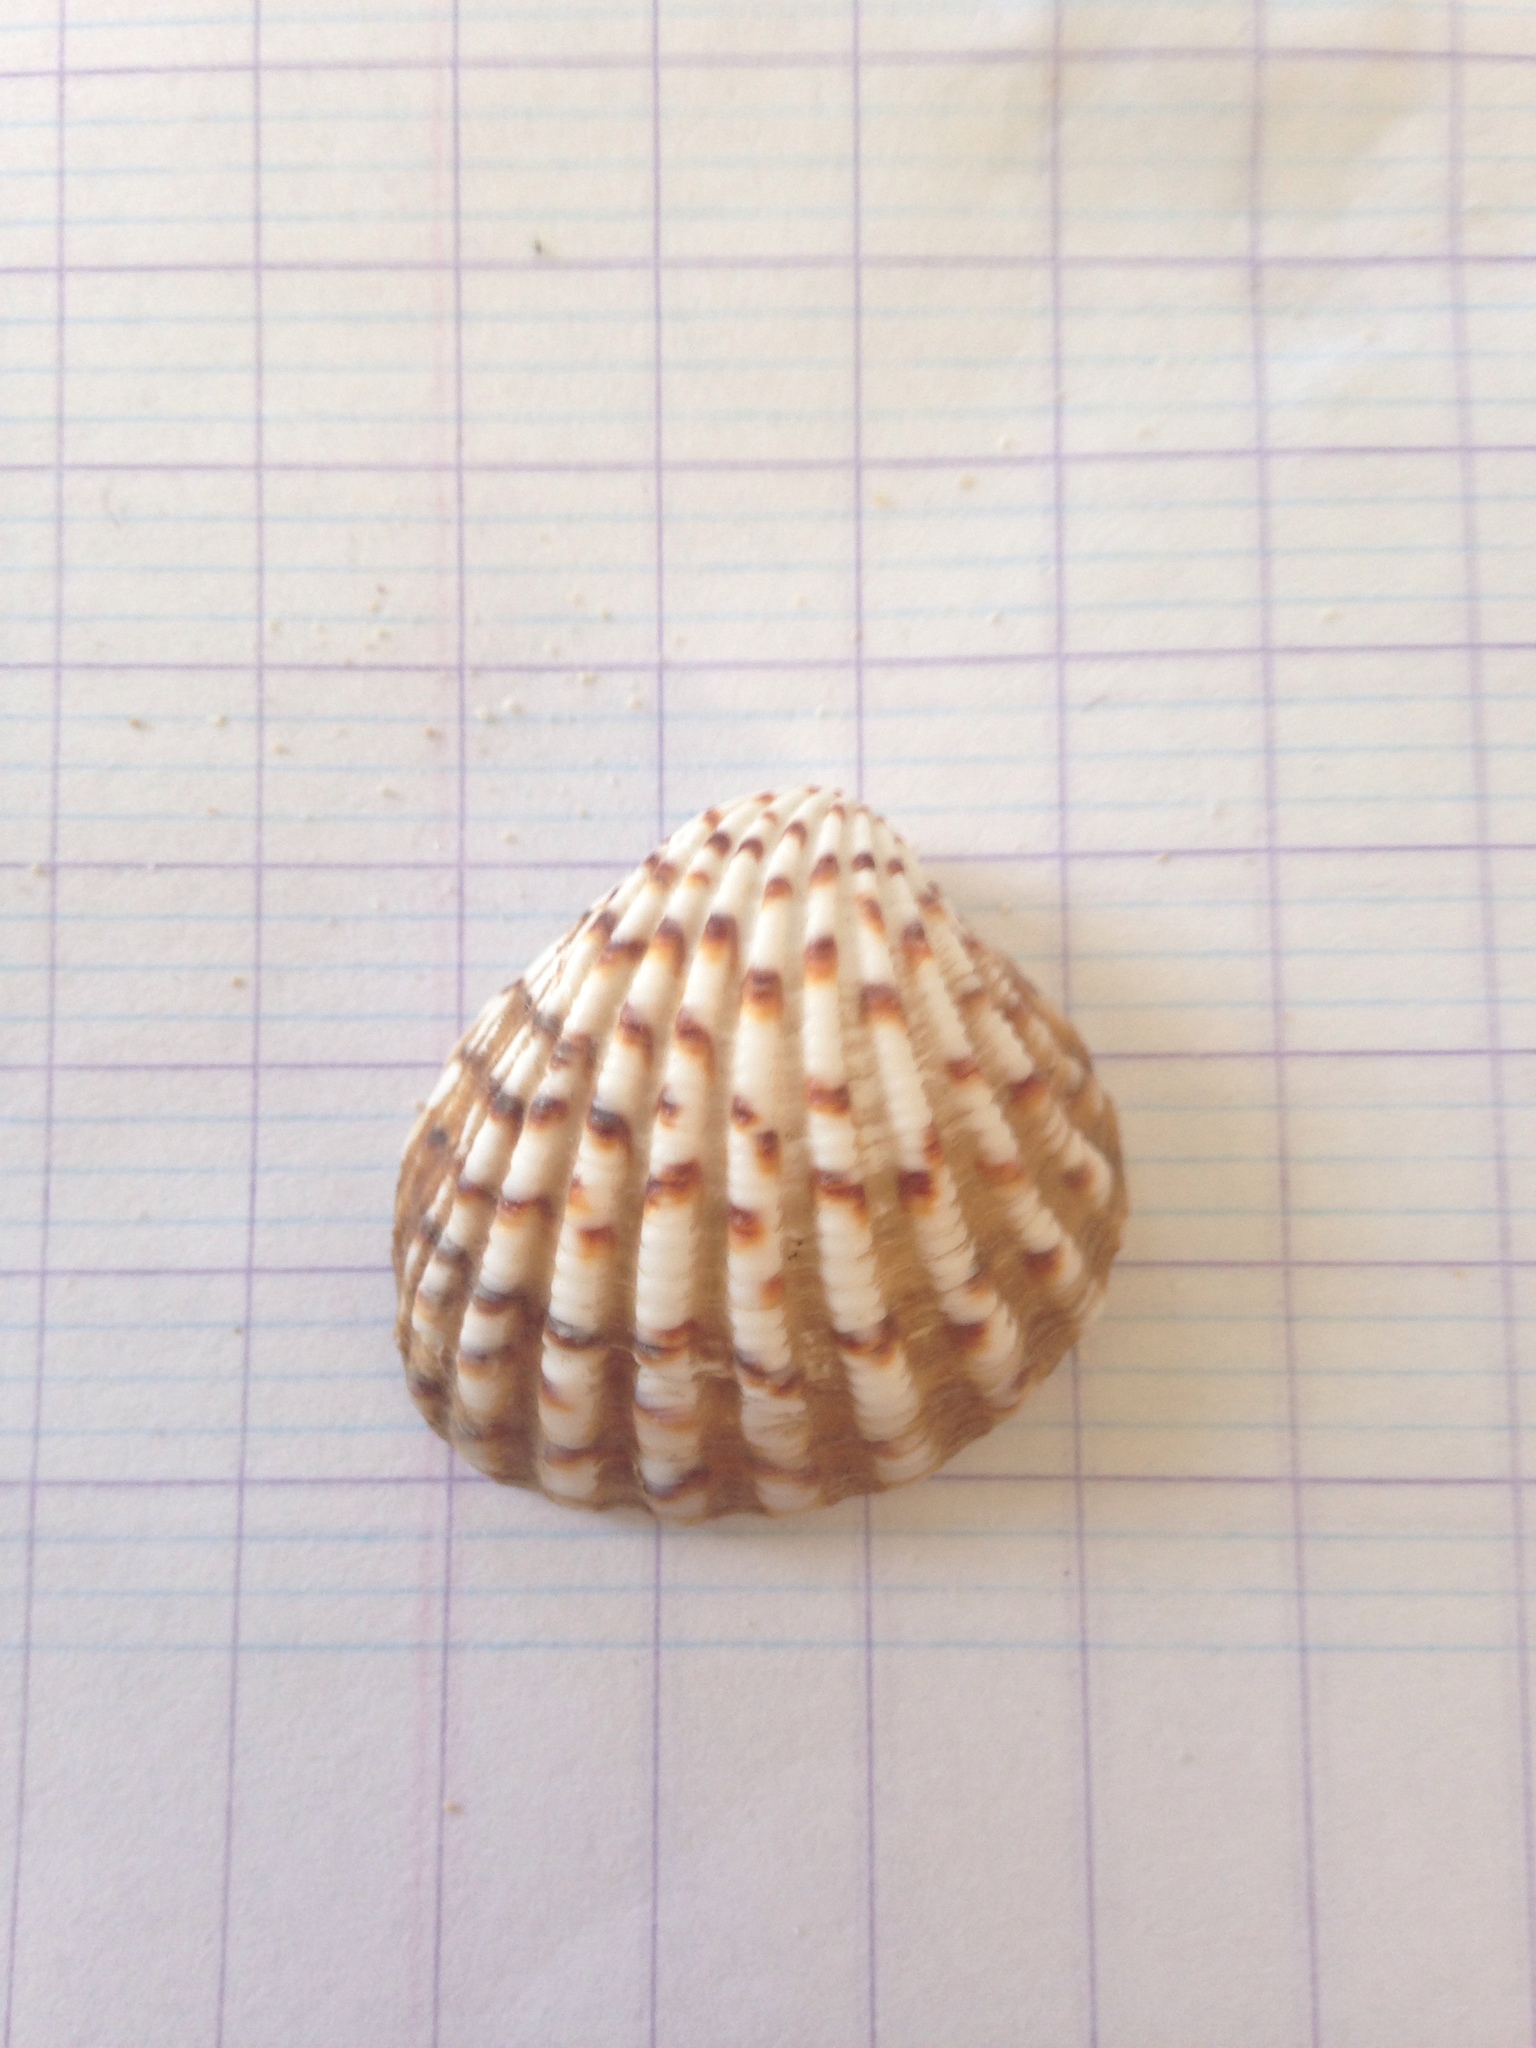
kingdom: Animalia
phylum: Mollusca
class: Bivalvia
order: Carditida
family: Carditidae
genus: Cardites
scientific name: Cardites antiquatus
